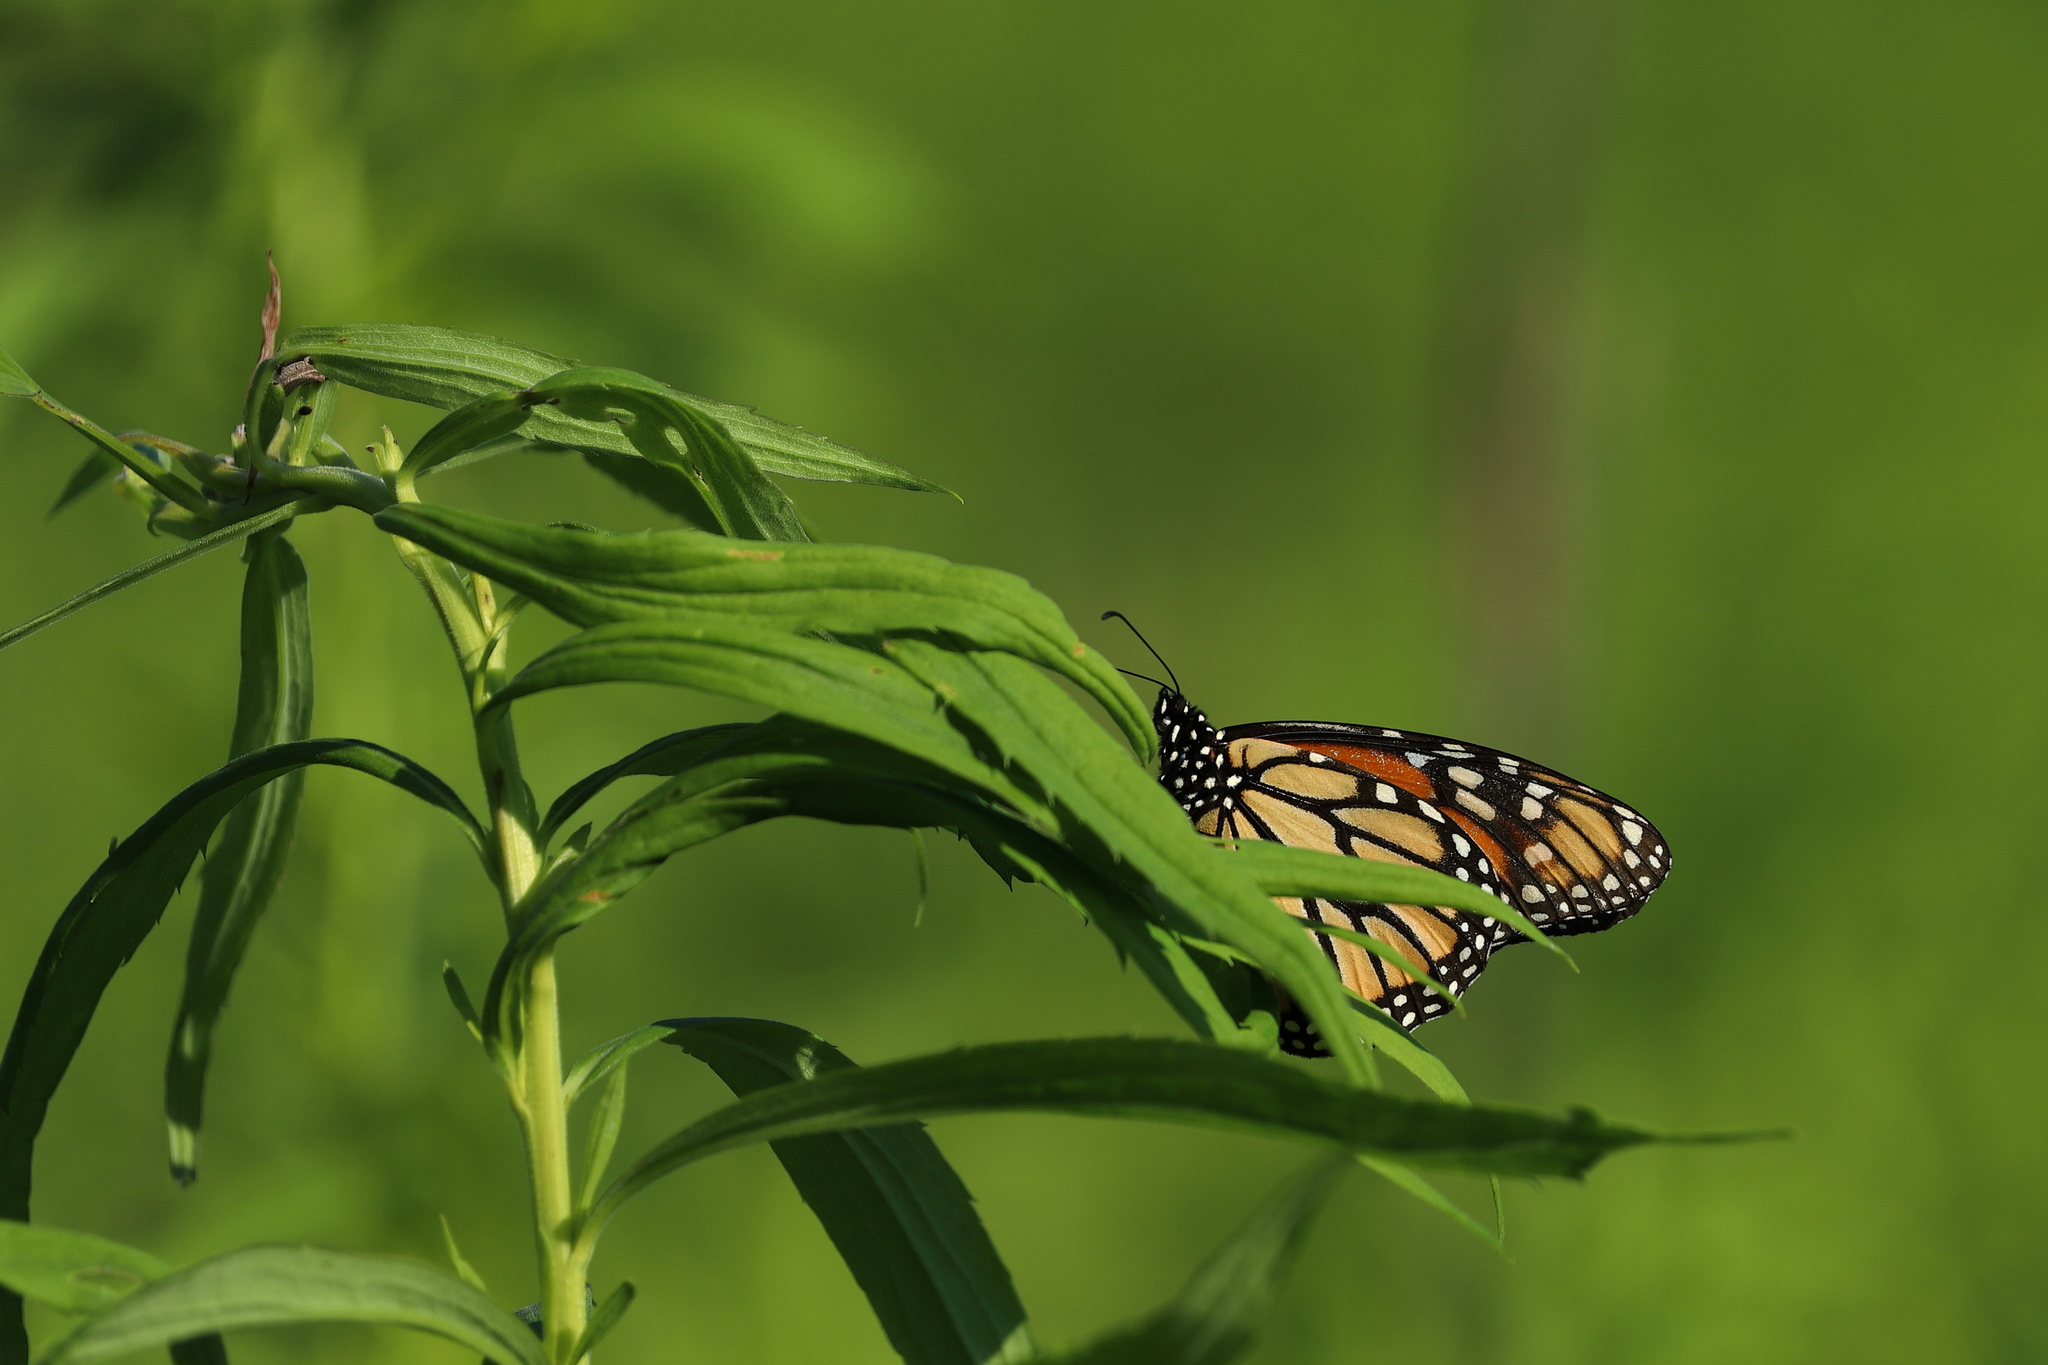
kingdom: Animalia
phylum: Arthropoda
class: Insecta
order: Lepidoptera
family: Nymphalidae
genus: Danaus
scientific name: Danaus plexippus
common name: Monarch
